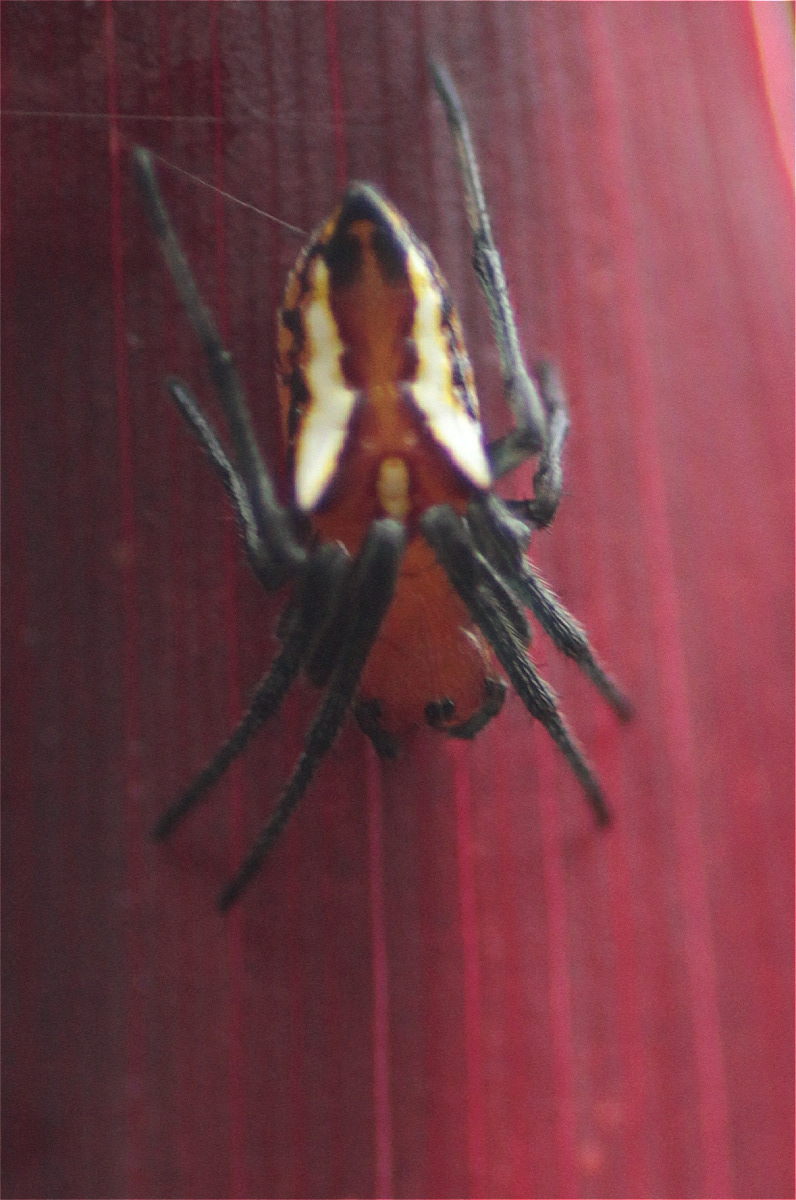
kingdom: Animalia
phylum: Arthropoda
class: Arachnida
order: Araneae
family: Araneidae
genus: Alpaida
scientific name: Alpaida bicornuta
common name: Orb weavers
